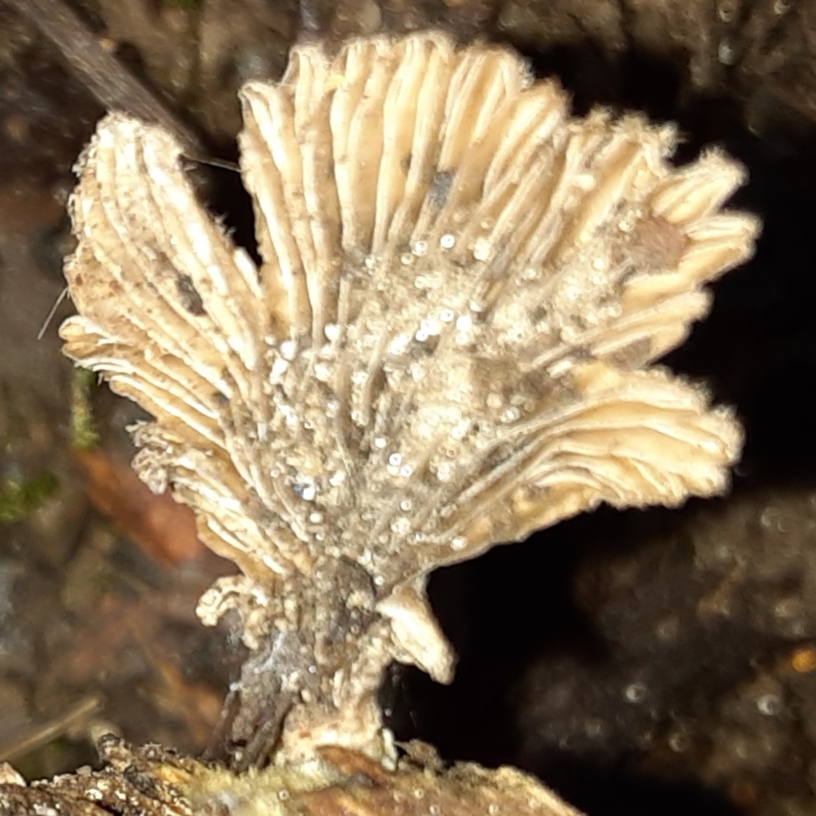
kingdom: Fungi
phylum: Basidiomycota
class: Agaricomycetes
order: Agaricales
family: Schizophyllaceae
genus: Schizophyllum
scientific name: Schizophyllum commune
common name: Common porecrust
